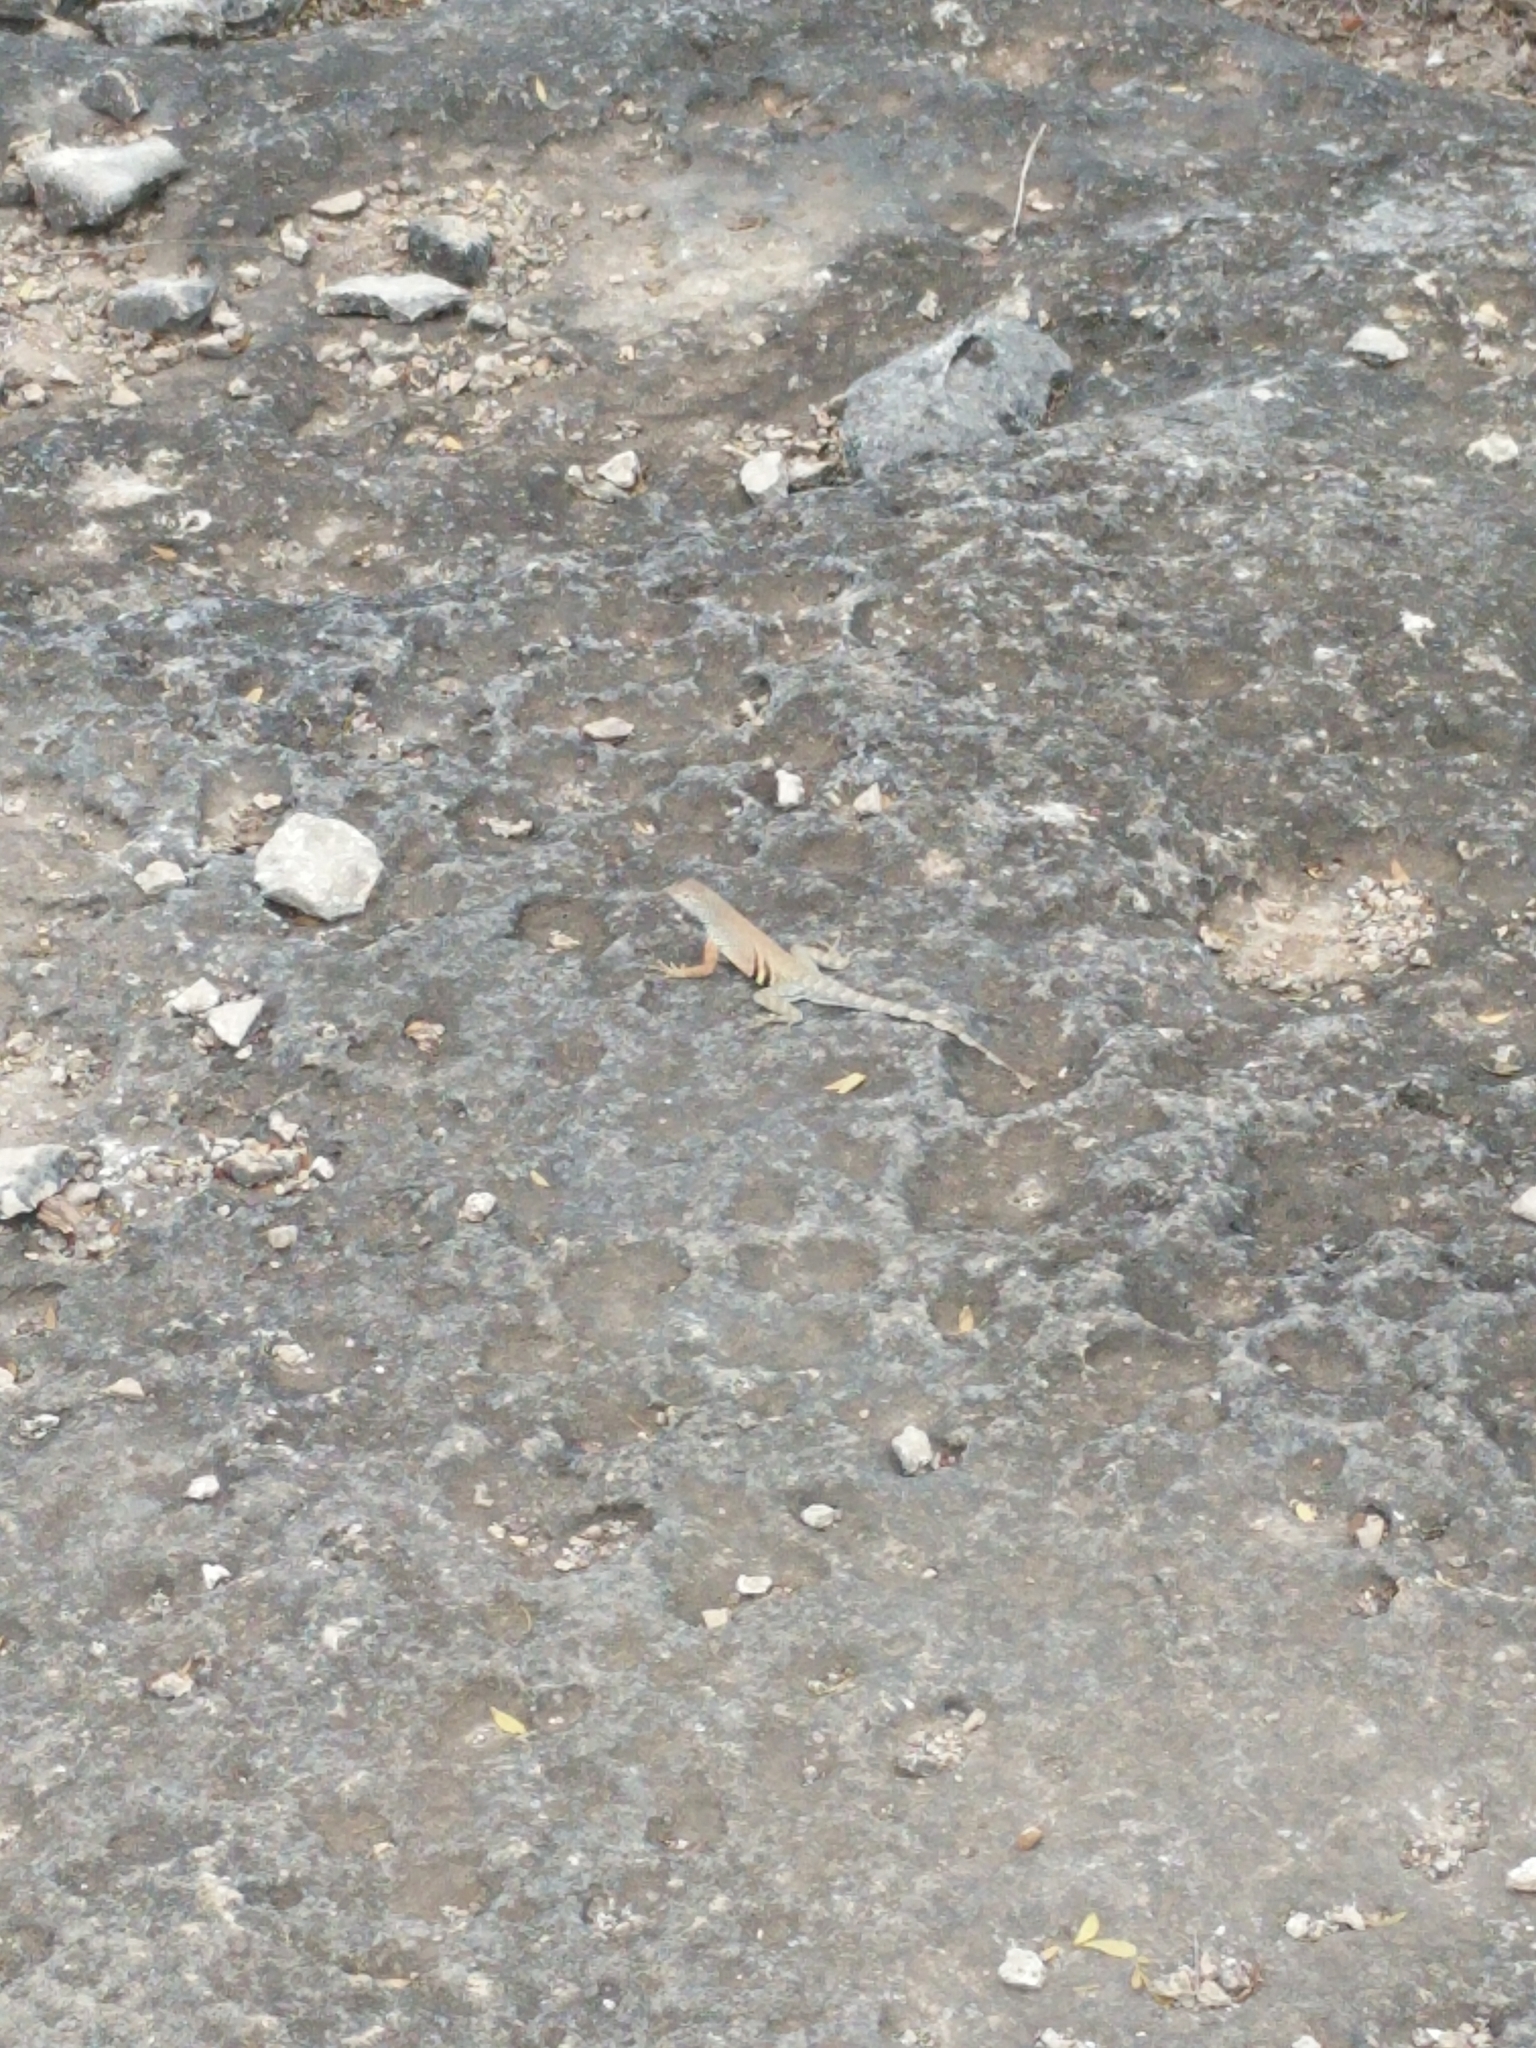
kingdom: Animalia
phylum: Chordata
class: Squamata
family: Phrynosomatidae
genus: Cophosaurus
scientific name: Cophosaurus texanus
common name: Greater earless lizard
